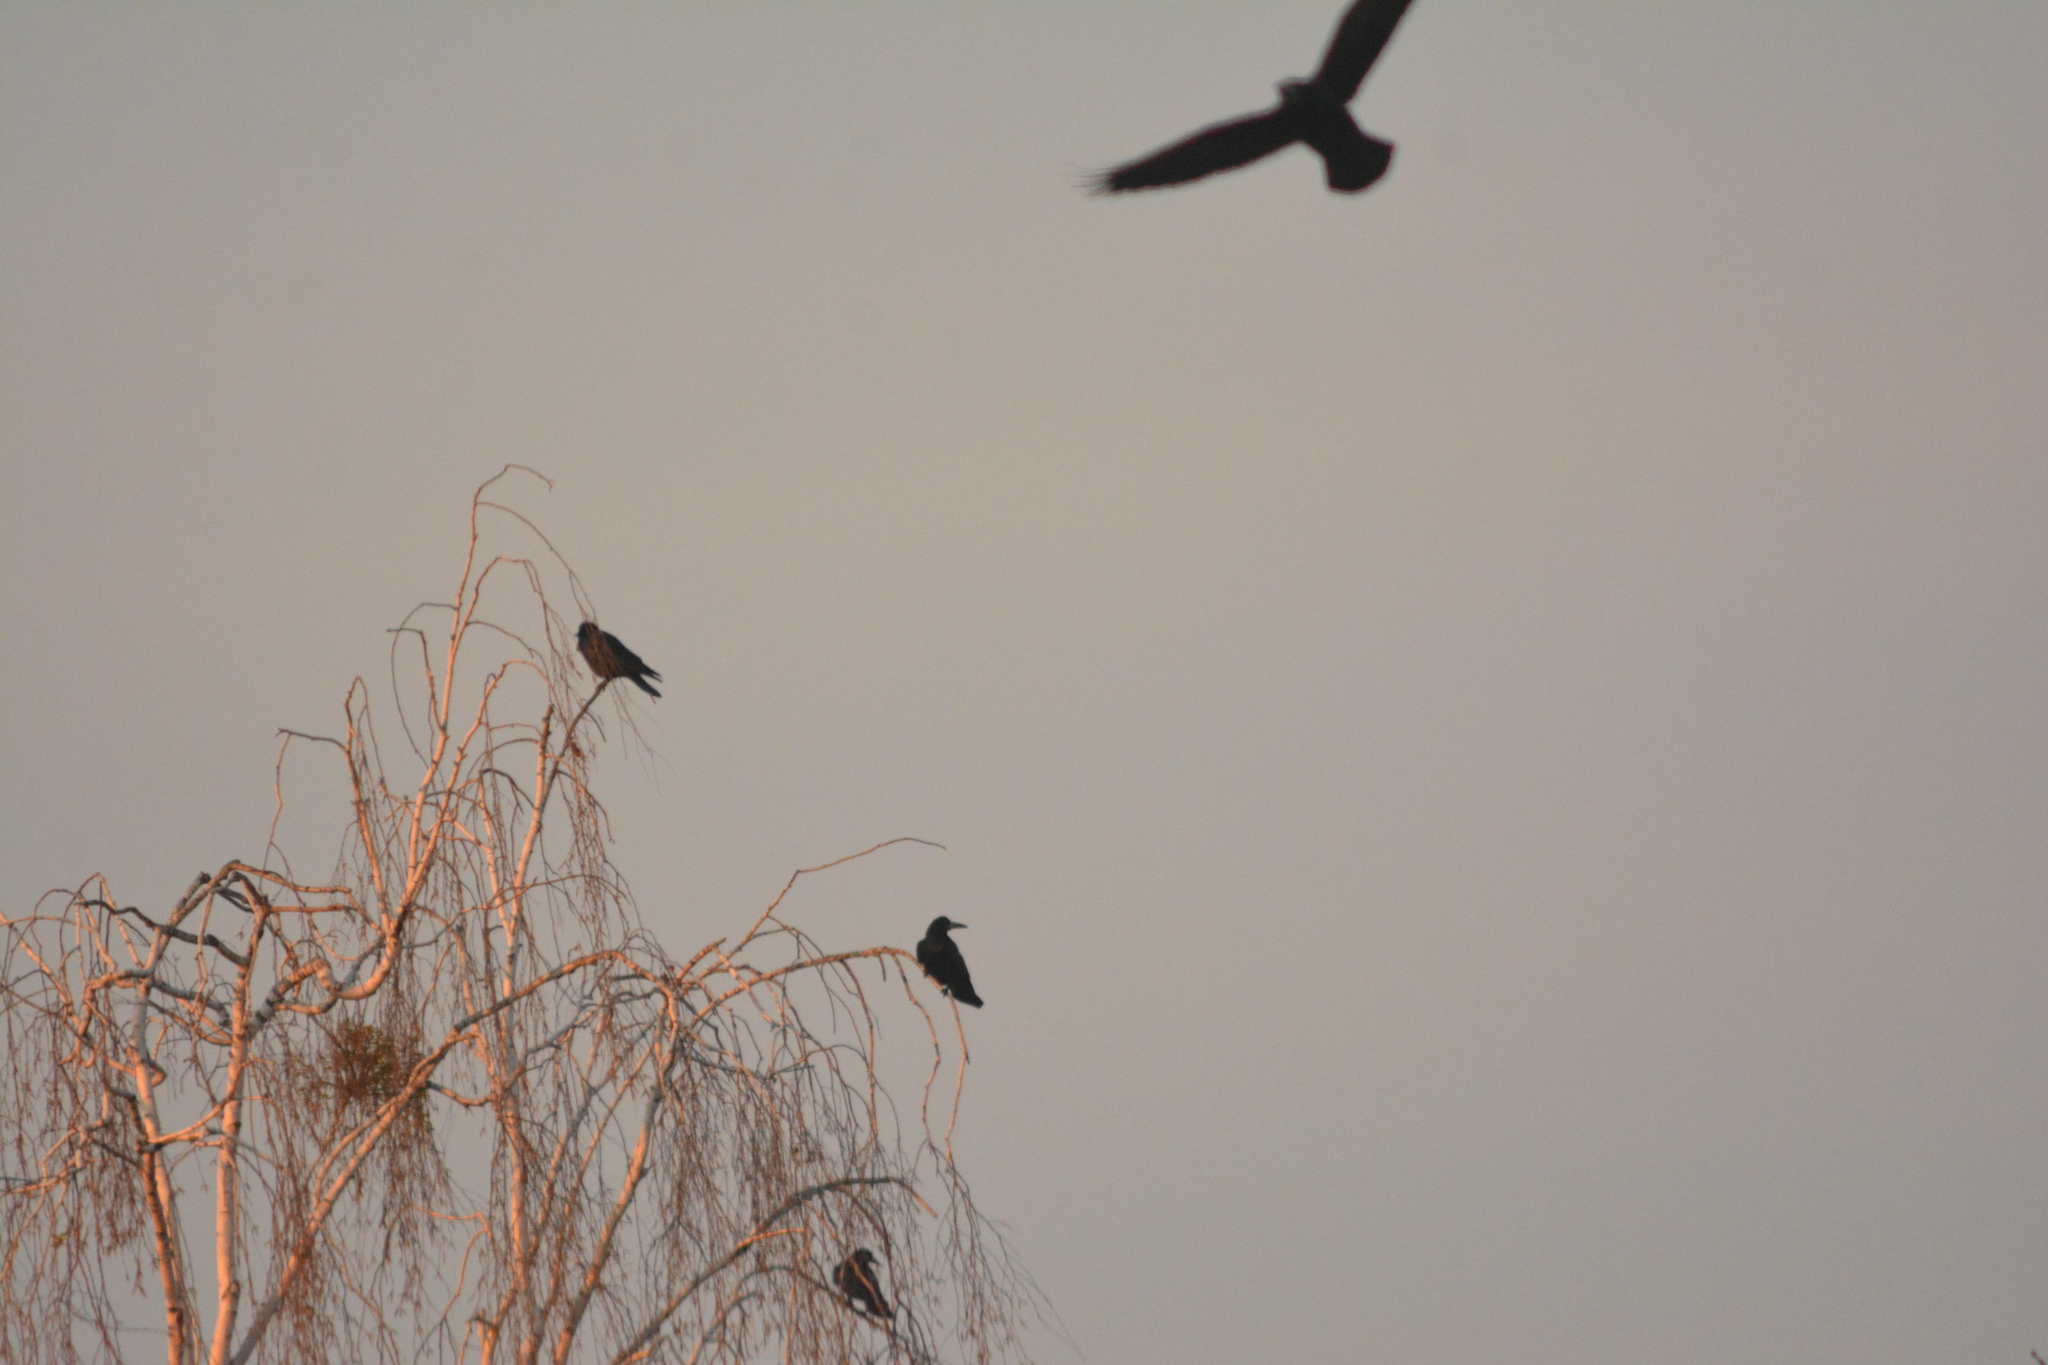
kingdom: Animalia
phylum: Chordata
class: Aves
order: Passeriformes
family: Corvidae
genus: Corvus
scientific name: Corvus frugilegus
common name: Rook
